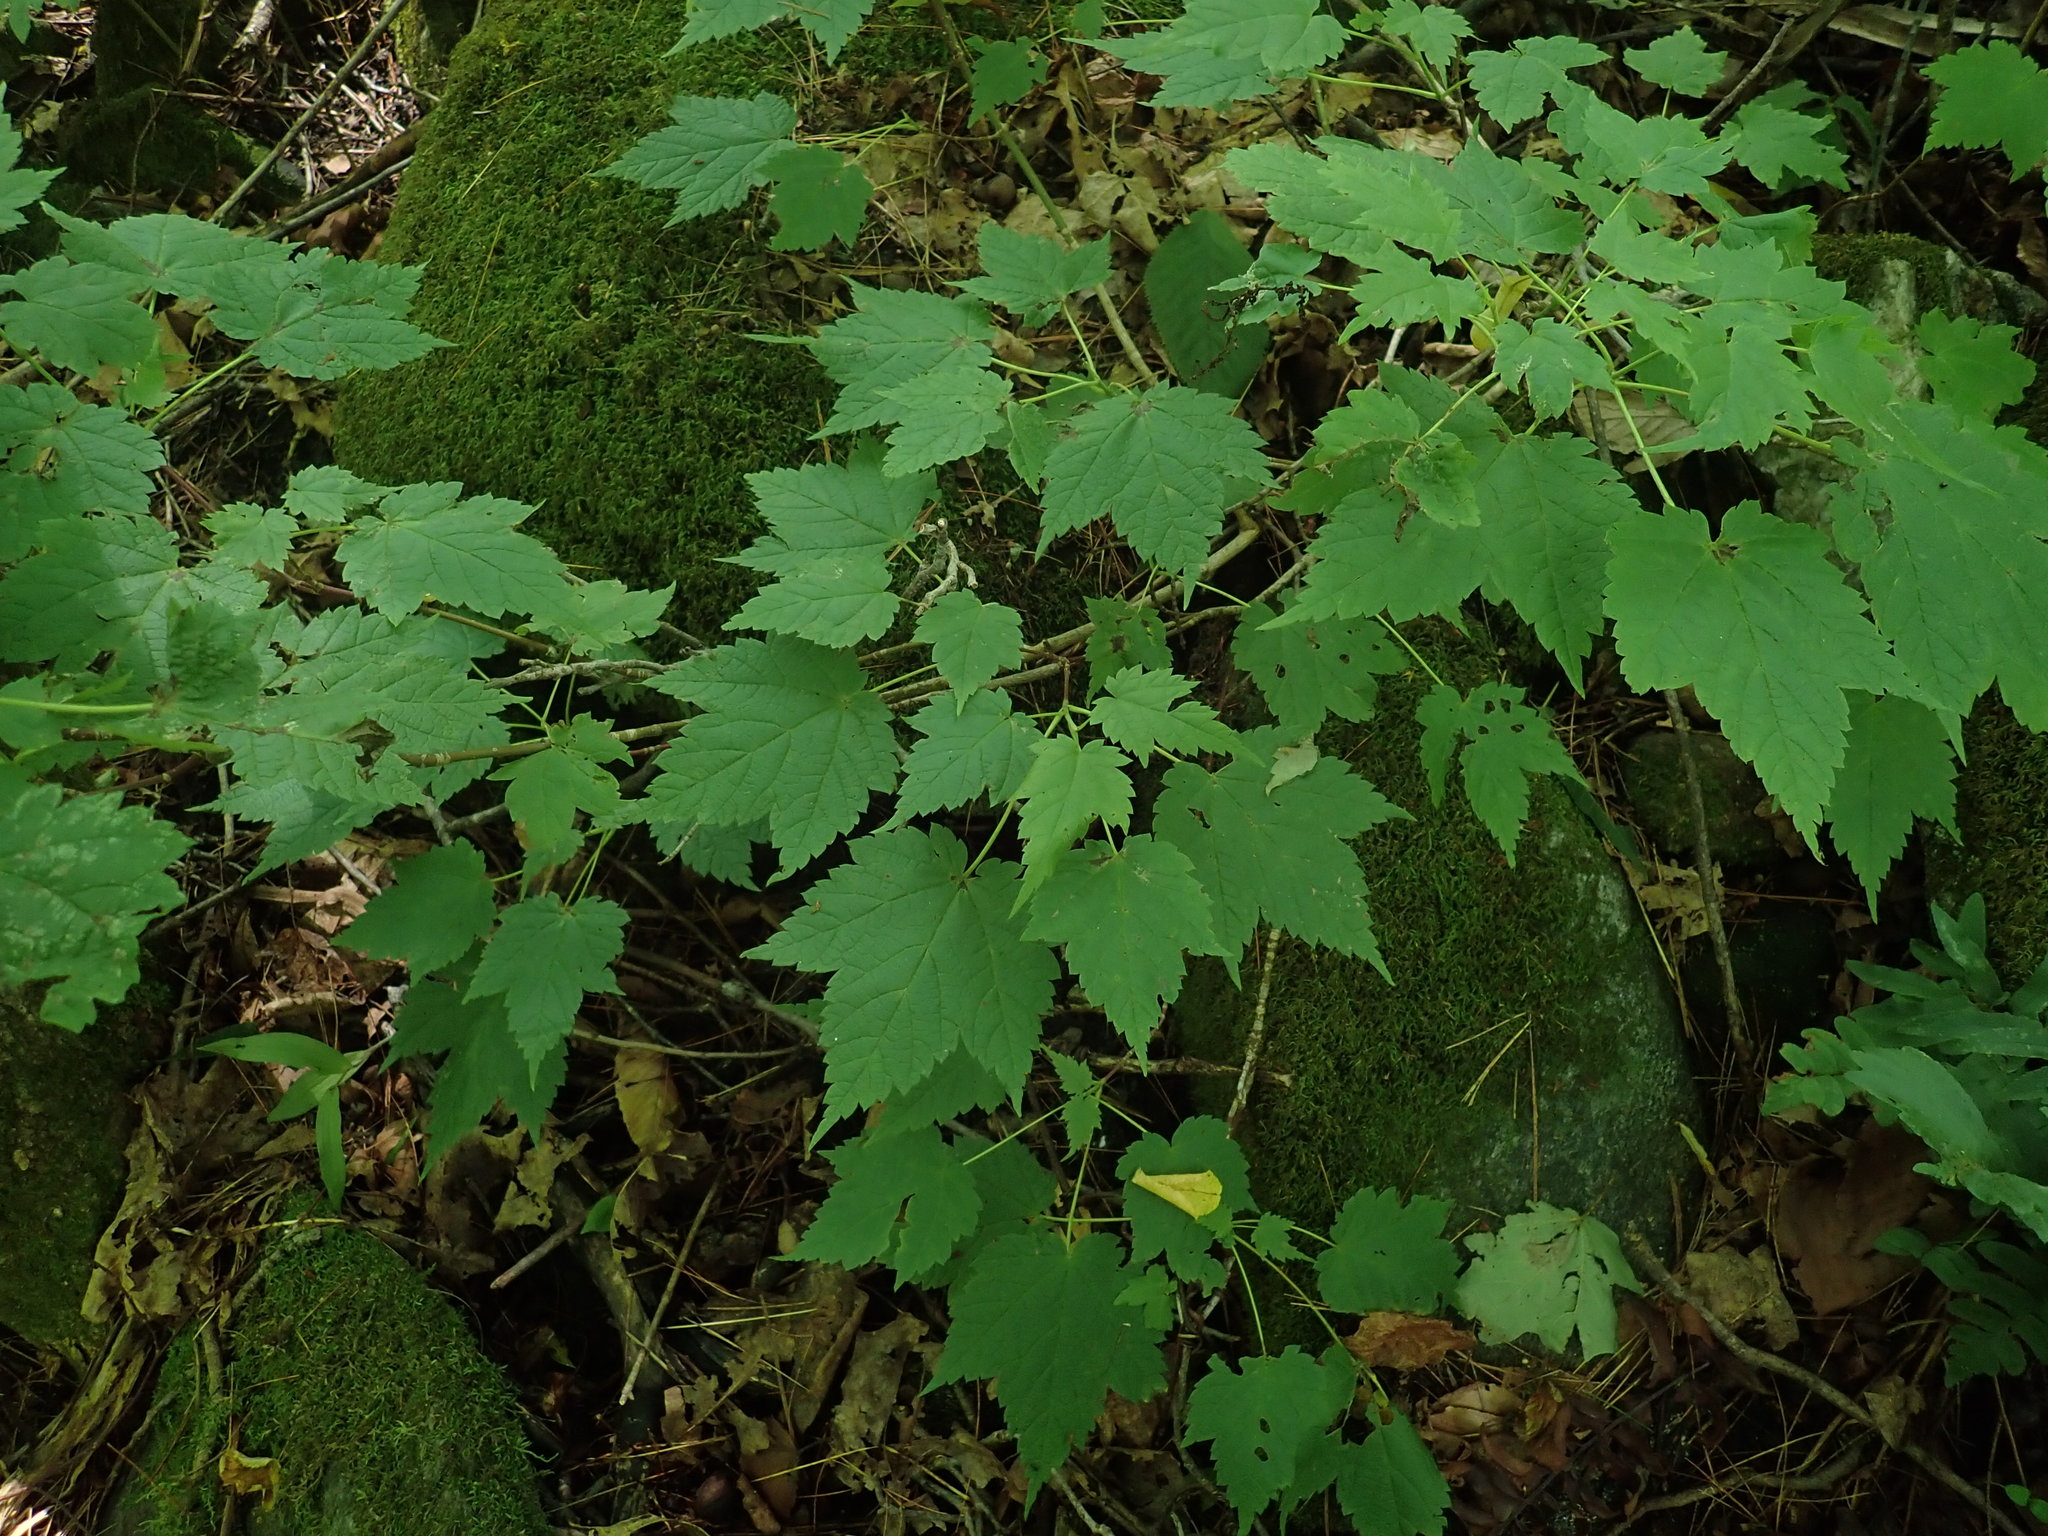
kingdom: Plantae
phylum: Tracheophyta
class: Magnoliopsida
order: Sapindales
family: Sapindaceae
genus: Acer
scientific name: Acer spicatum
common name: Mountain maple
